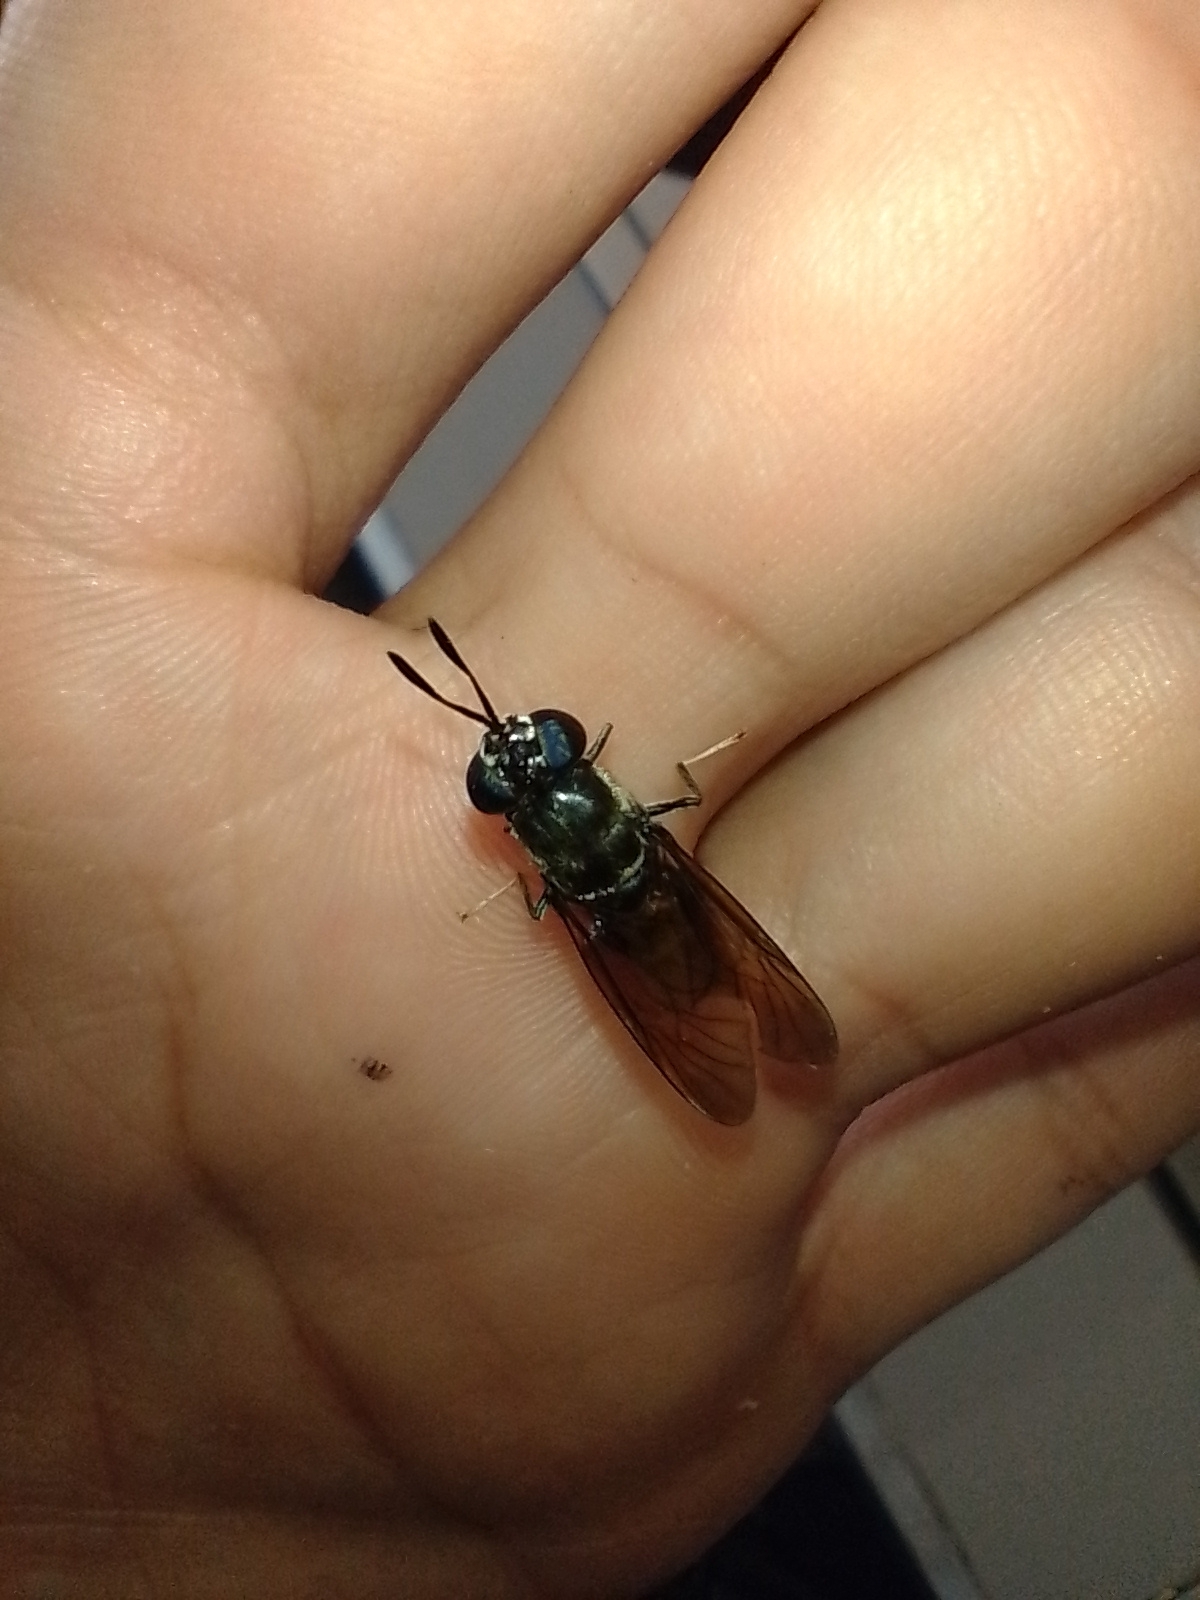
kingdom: Animalia
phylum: Arthropoda
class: Insecta
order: Diptera
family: Stratiomyidae
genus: Hermetia
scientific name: Hermetia illucens
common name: Black soldier fly
